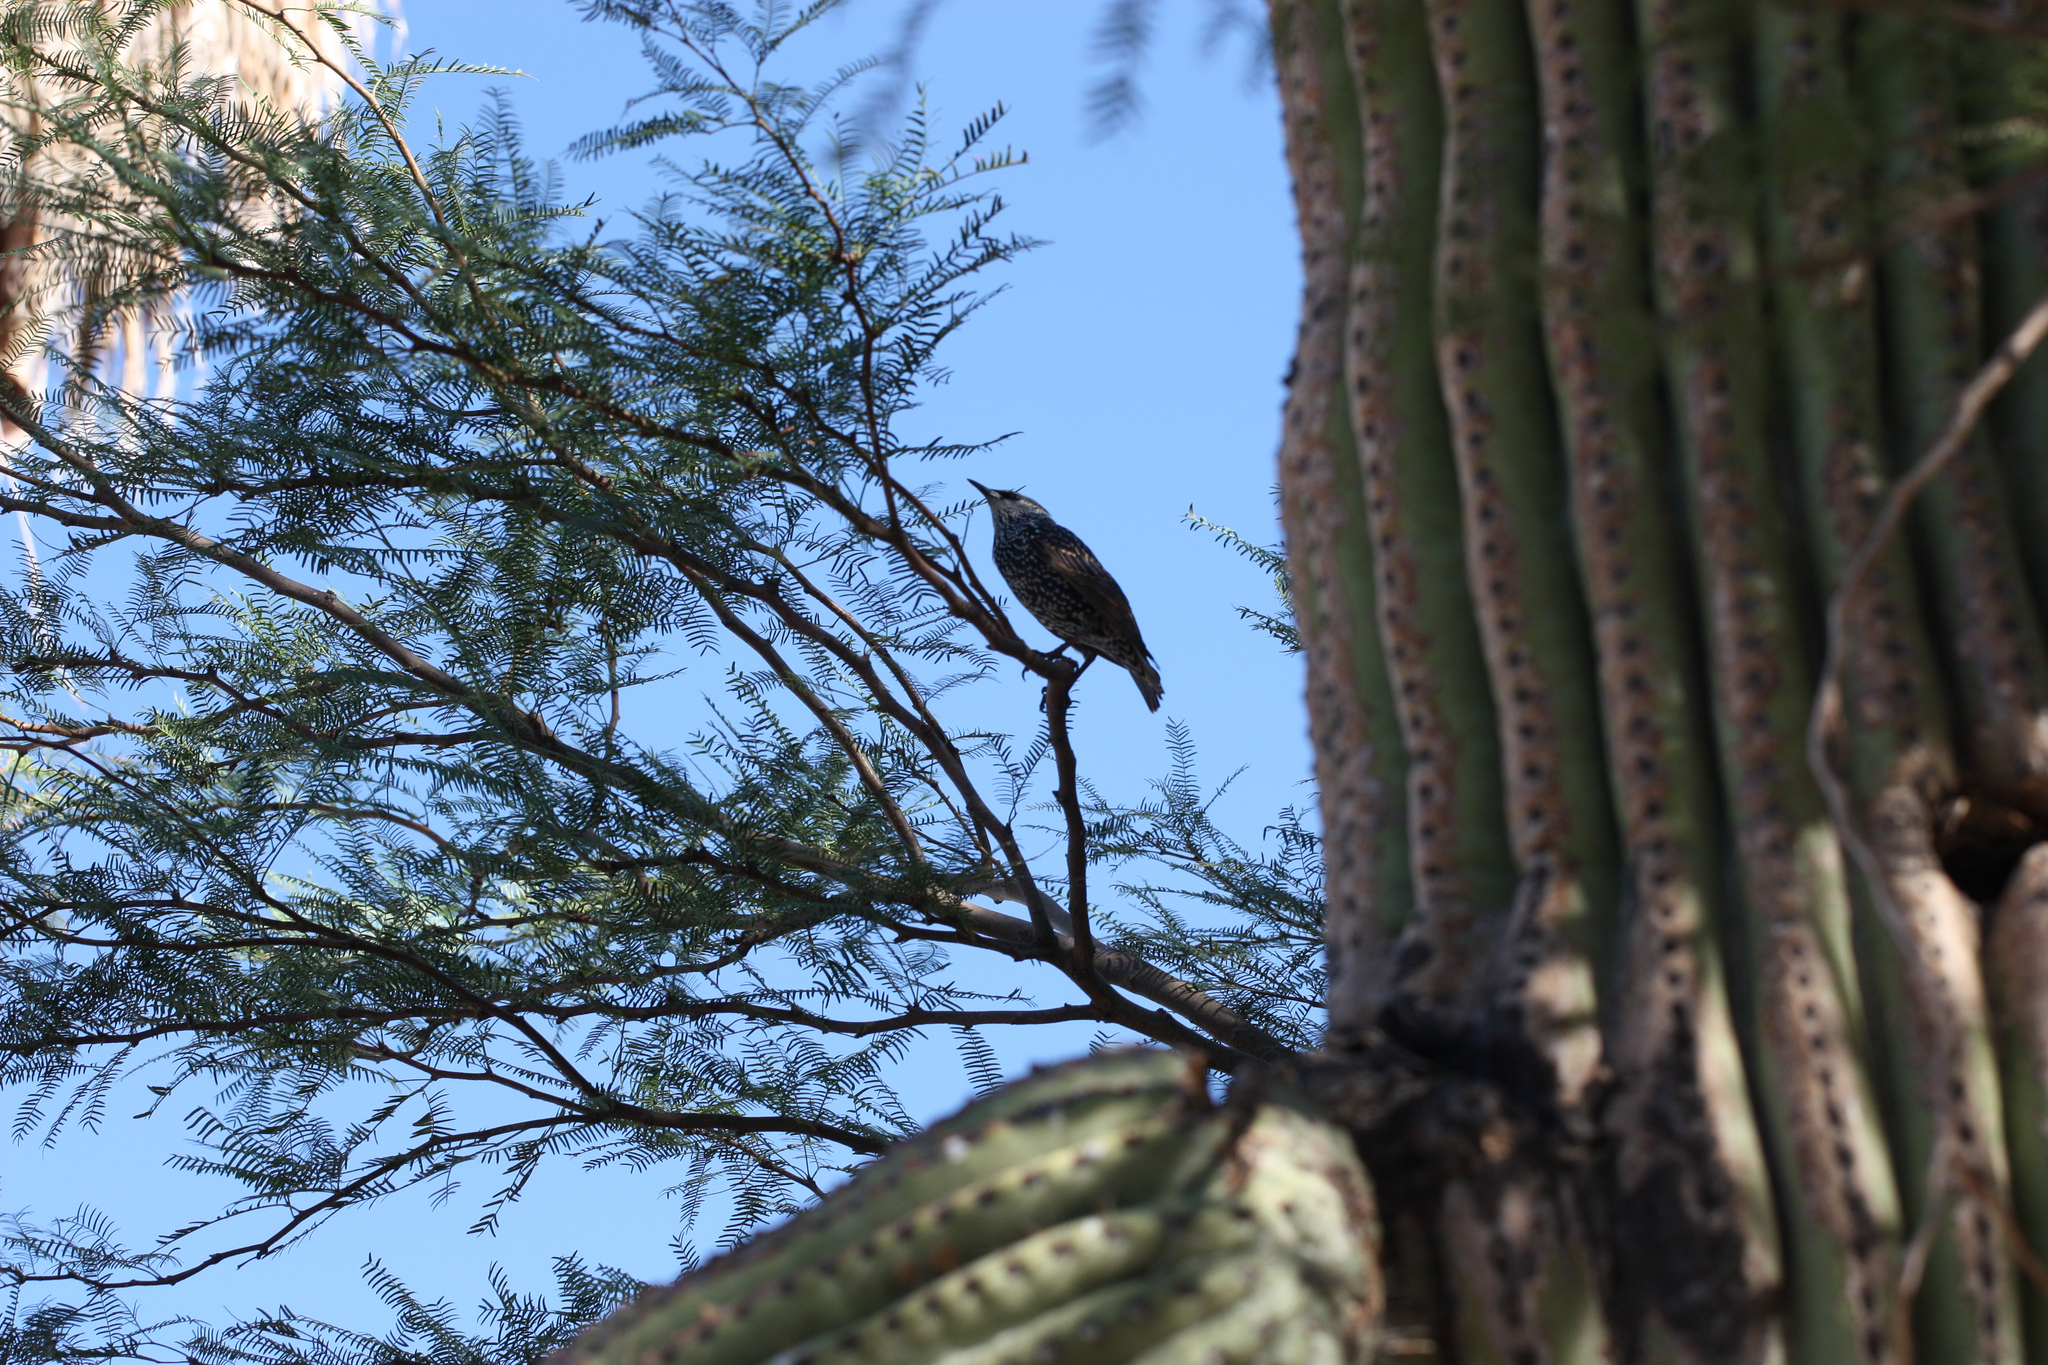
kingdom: Animalia
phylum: Chordata
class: Aves
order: Passeriformes
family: Sturnidae
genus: Sturnus
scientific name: Sturnus vulgaris
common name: Common starling
